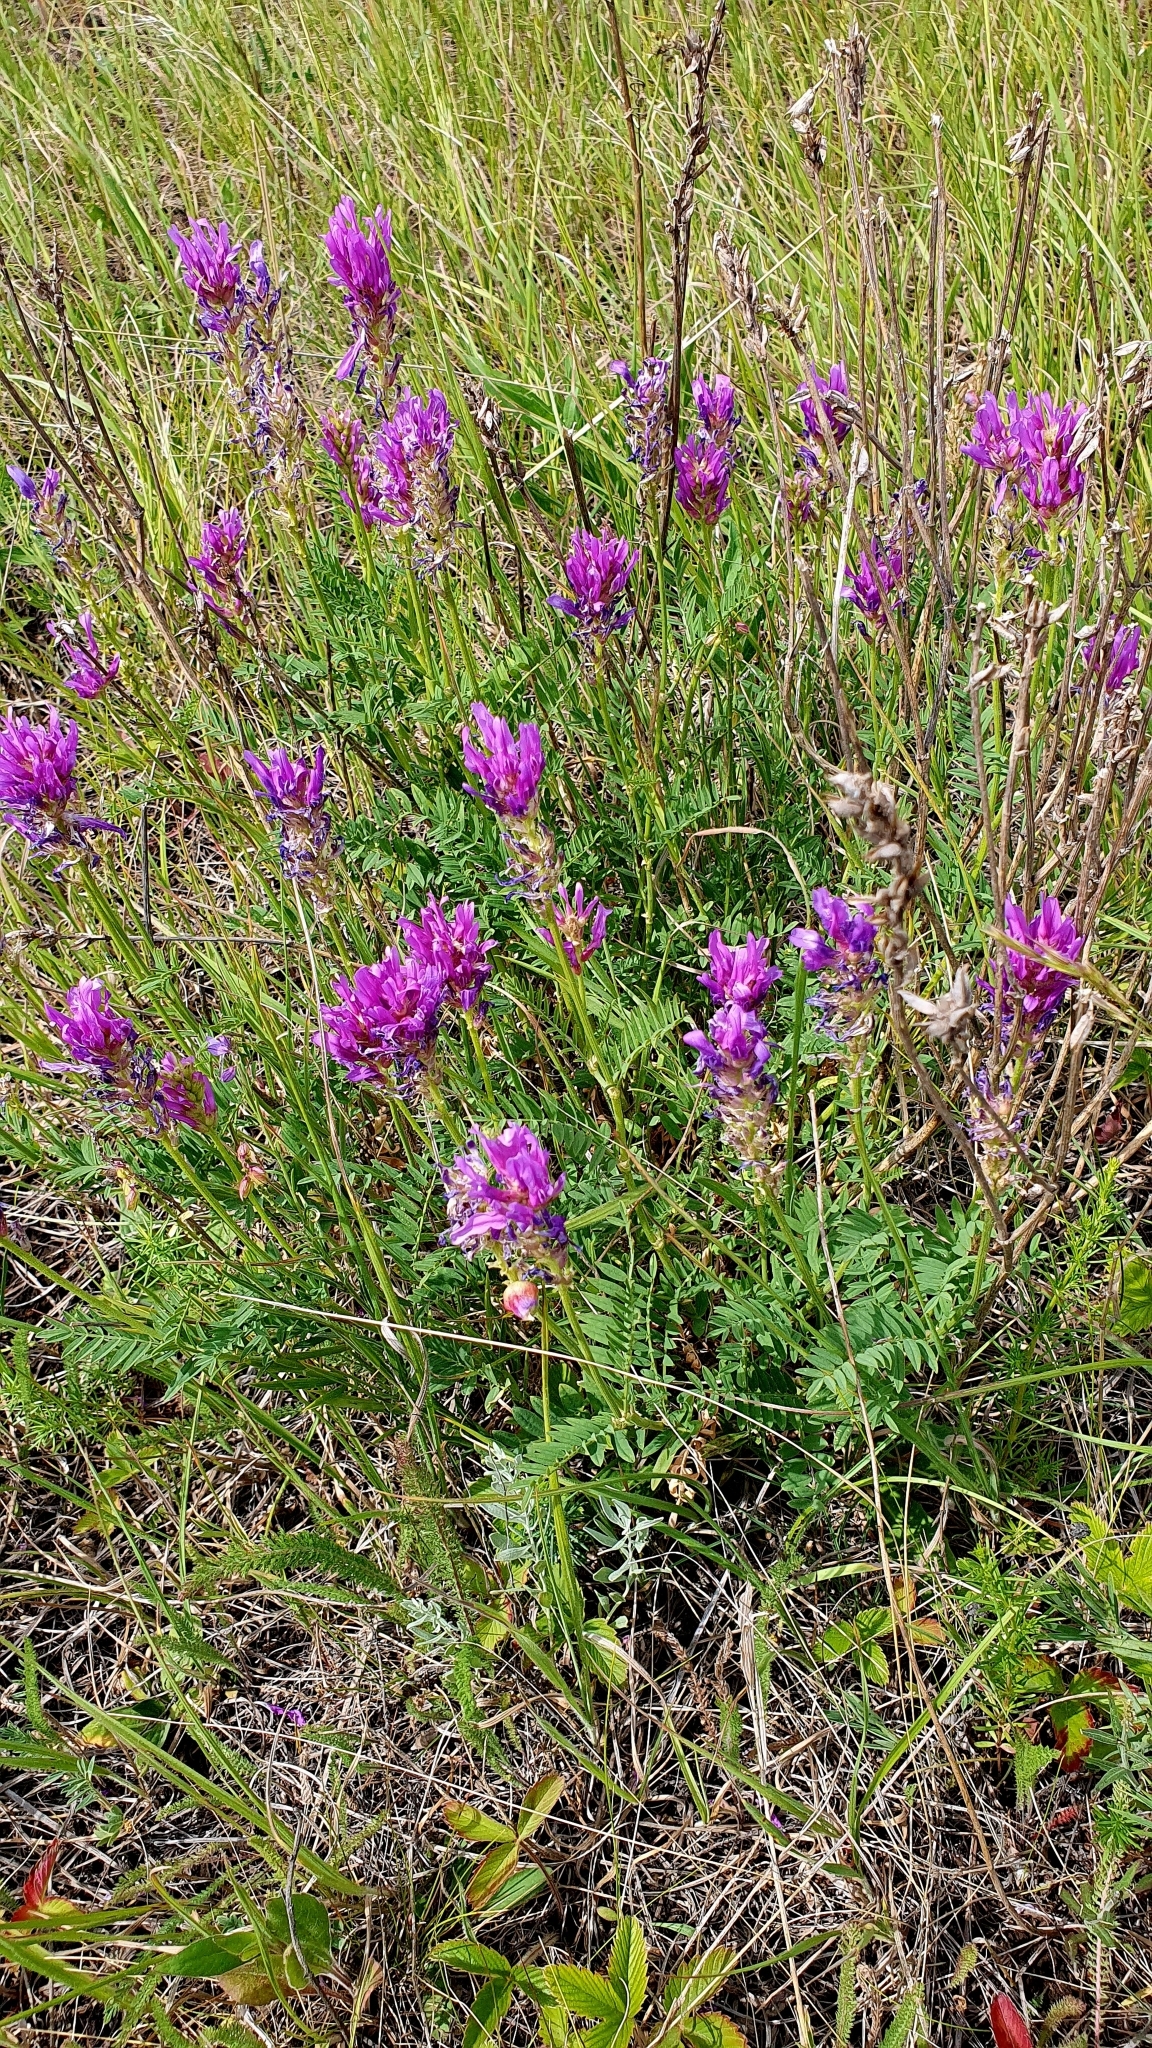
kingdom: Plantae
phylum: Tracheophyta
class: Magnoliopsida
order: Fabales
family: Fabaceae
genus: Astragalus
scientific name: Astragalus onobrychis
